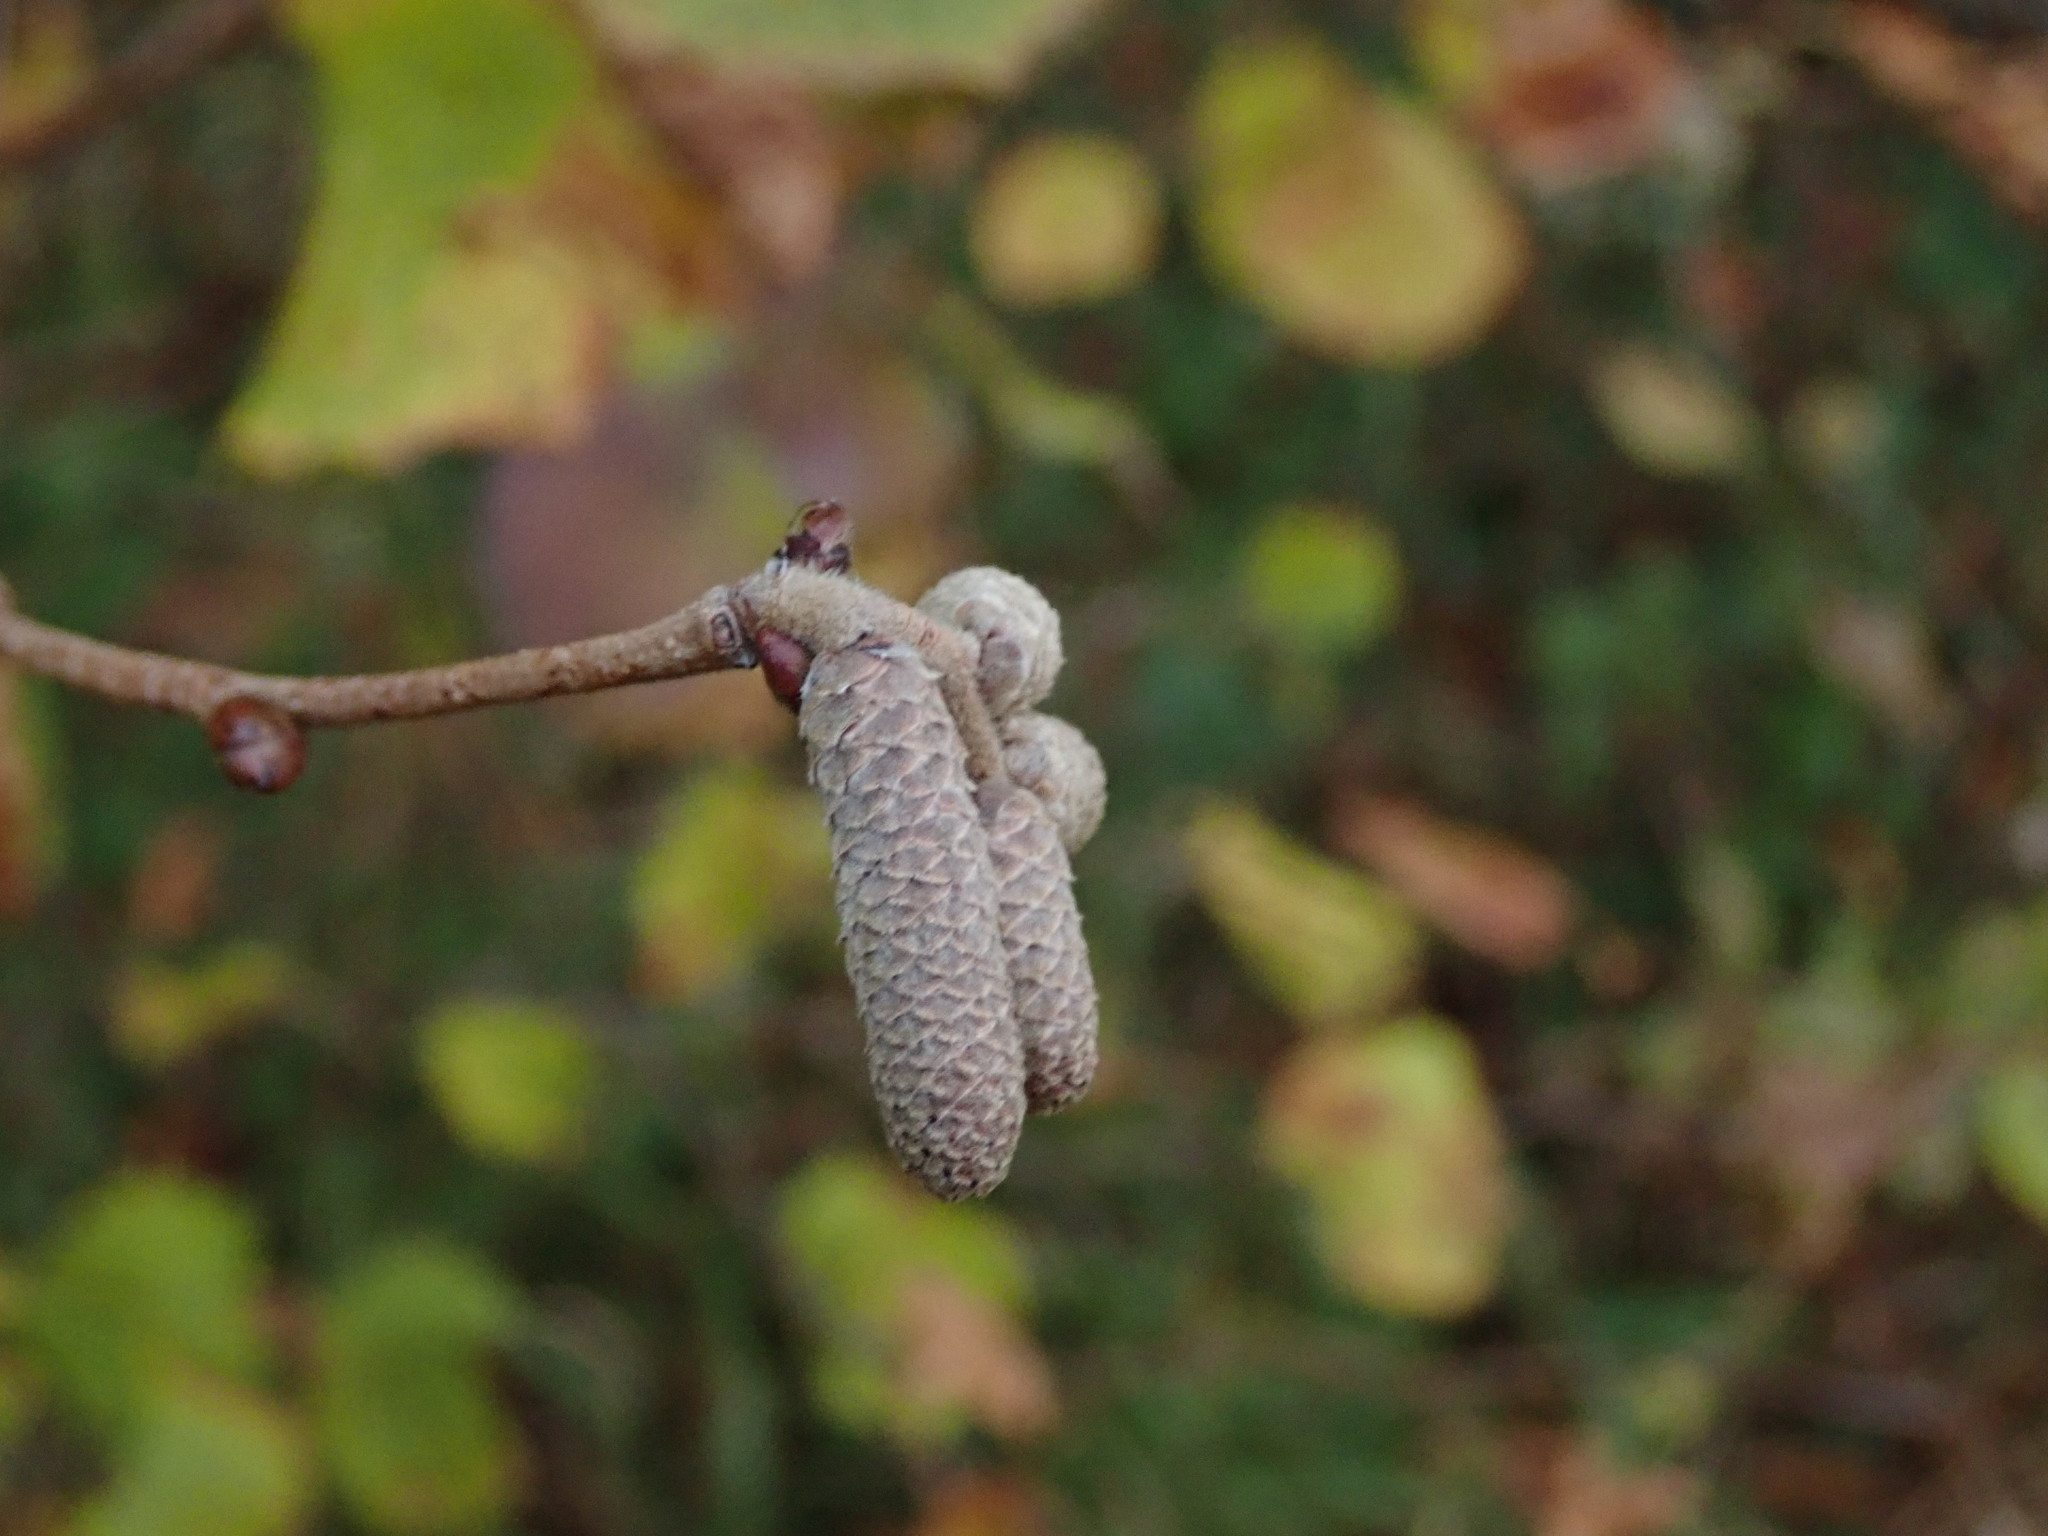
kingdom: Plantae
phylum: Tracheophyta
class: Magnoliopsida
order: Fagales
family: Betulaceae
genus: Corylus
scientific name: Corylus avellana
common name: European hazel
